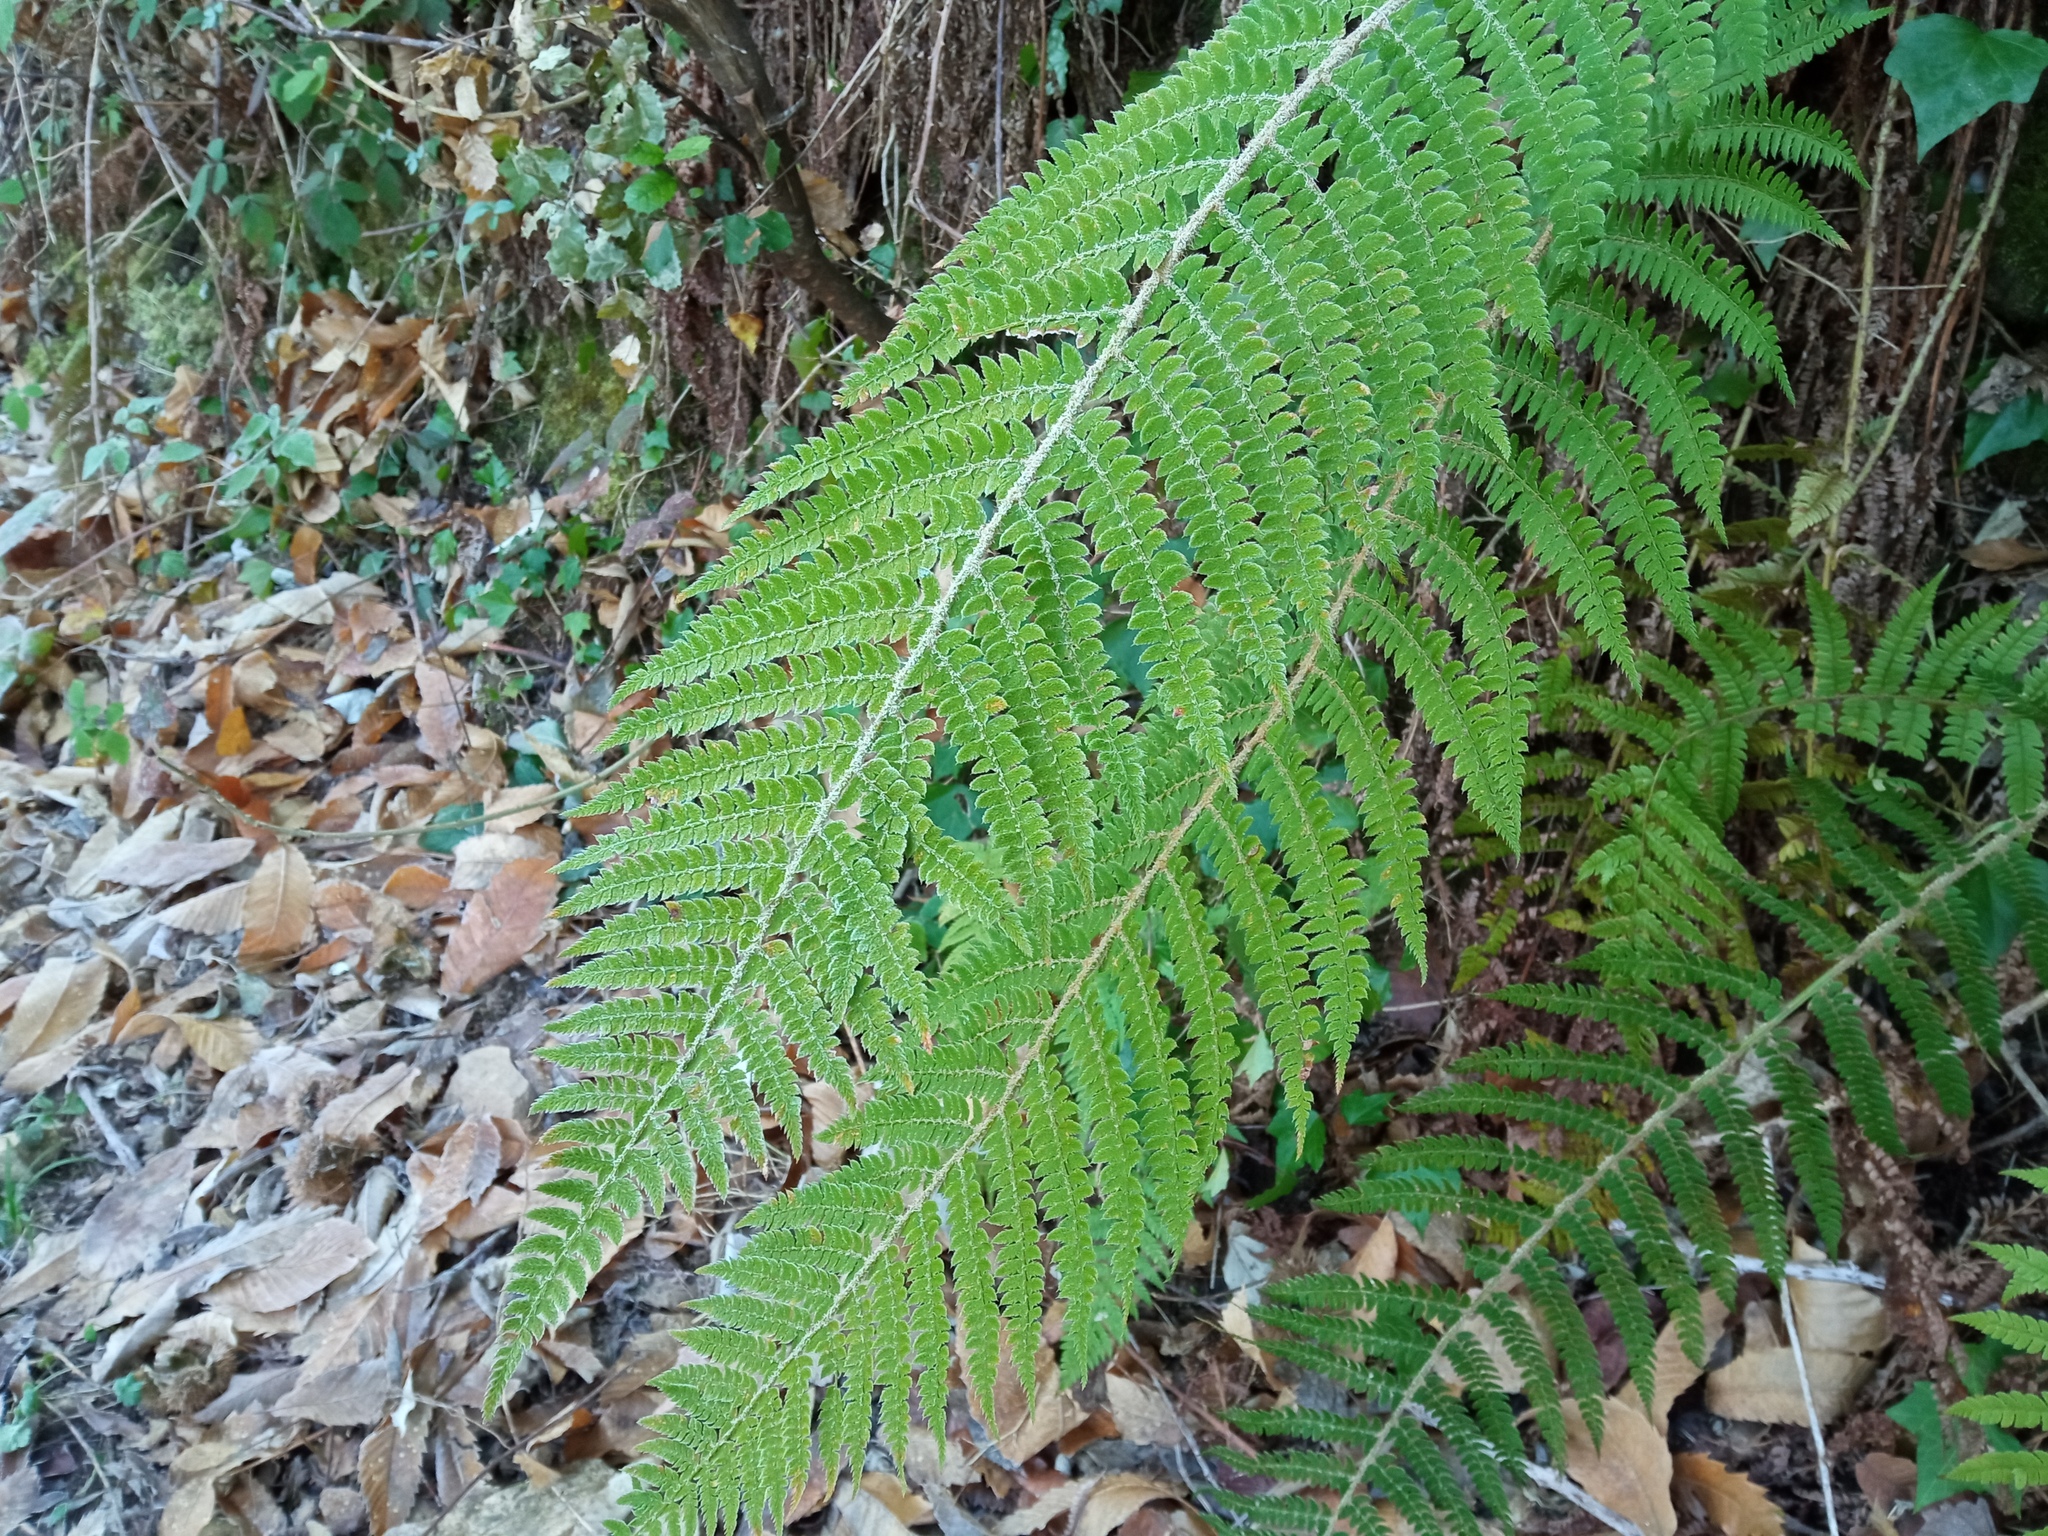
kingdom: Plantae
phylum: Tracheophyta
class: Polypodiopsida
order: Polypodiales
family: Dryopteridaceae
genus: Polystichum
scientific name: Polystichum setiferum
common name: Soft shield-fern
